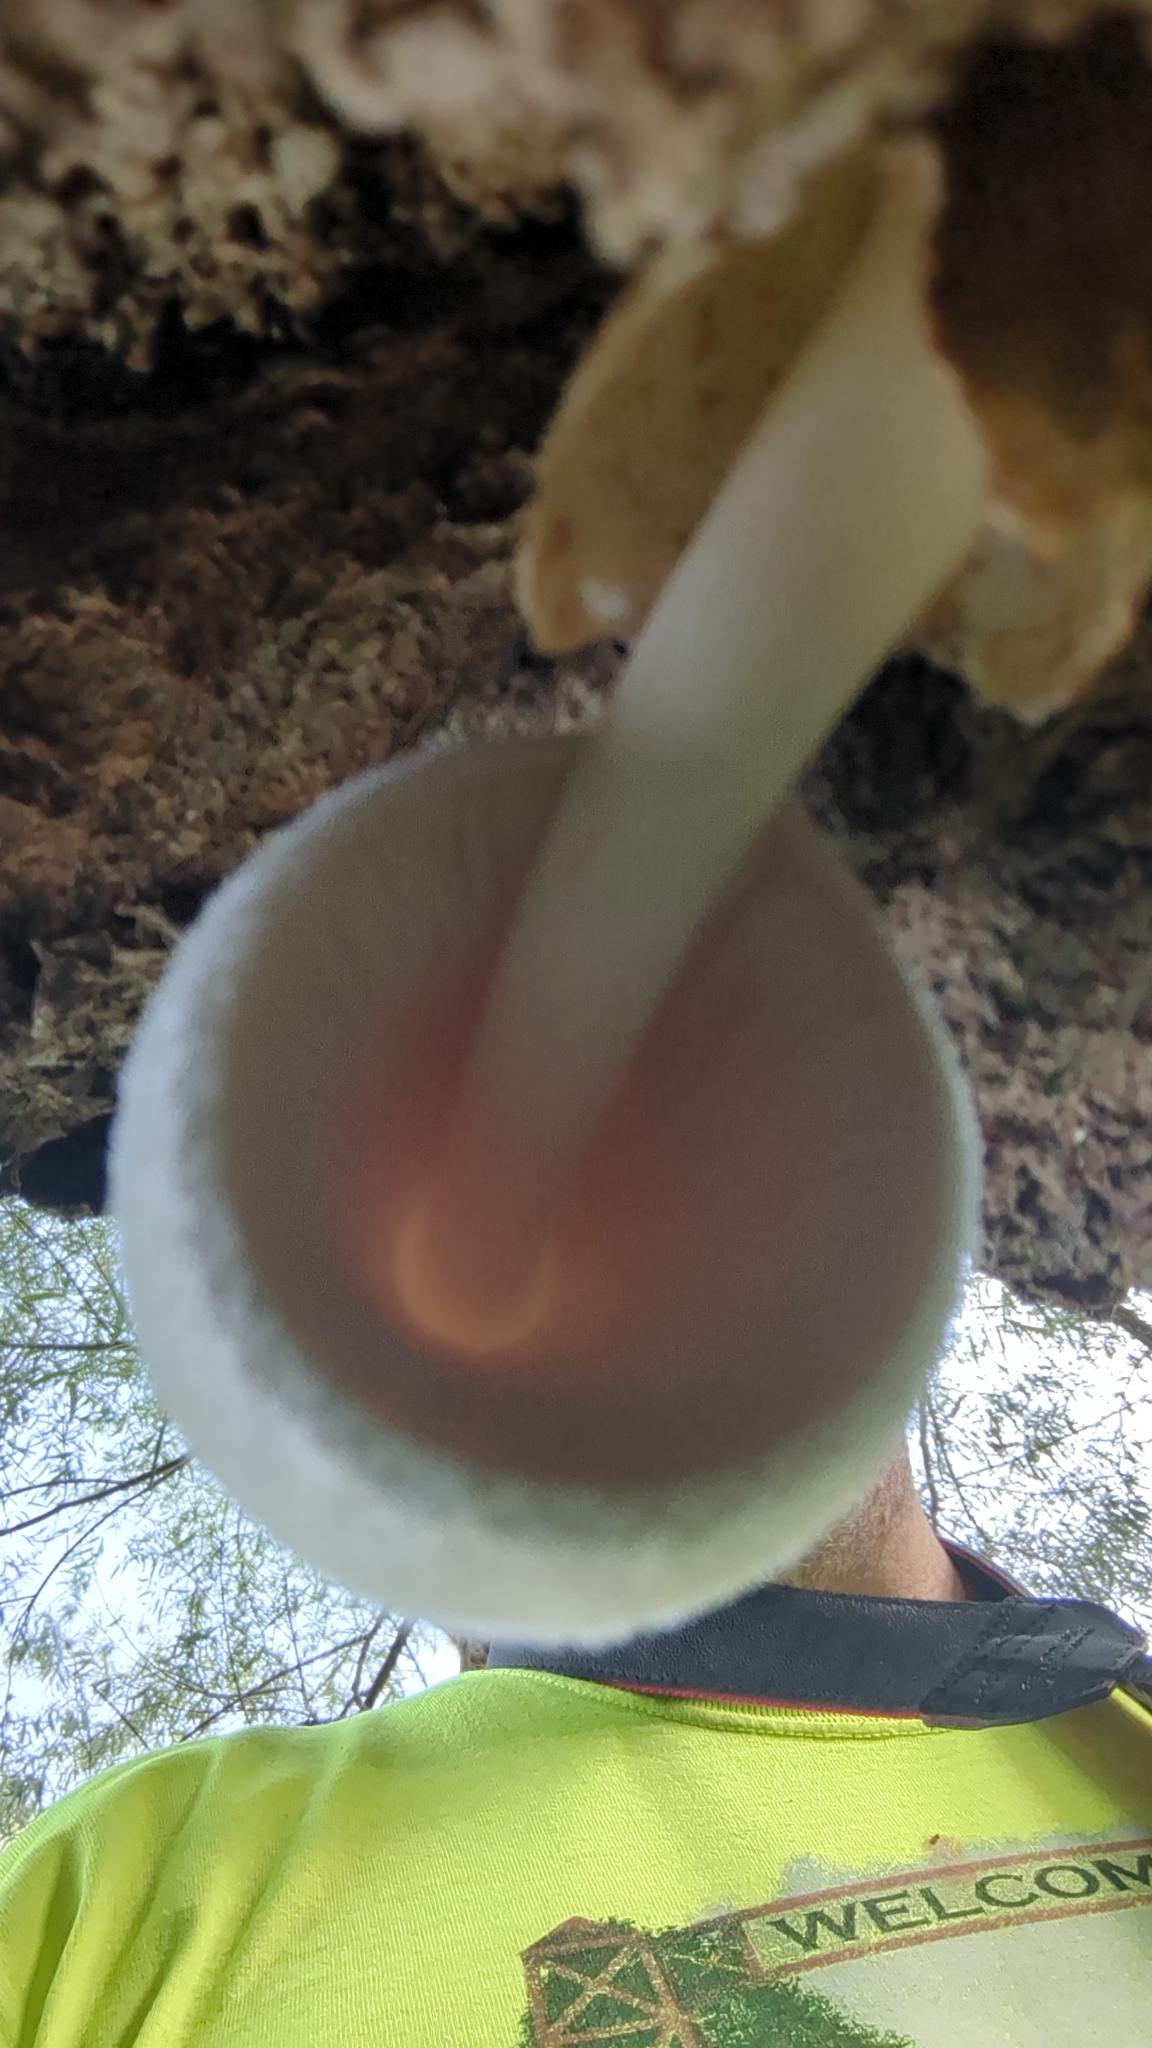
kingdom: Fungi
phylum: Basidiomycota
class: Agaricomycetes
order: Agaricales
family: Pluteaceae
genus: Volvariella
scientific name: Volvariella bombycina
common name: Silky rosegill
